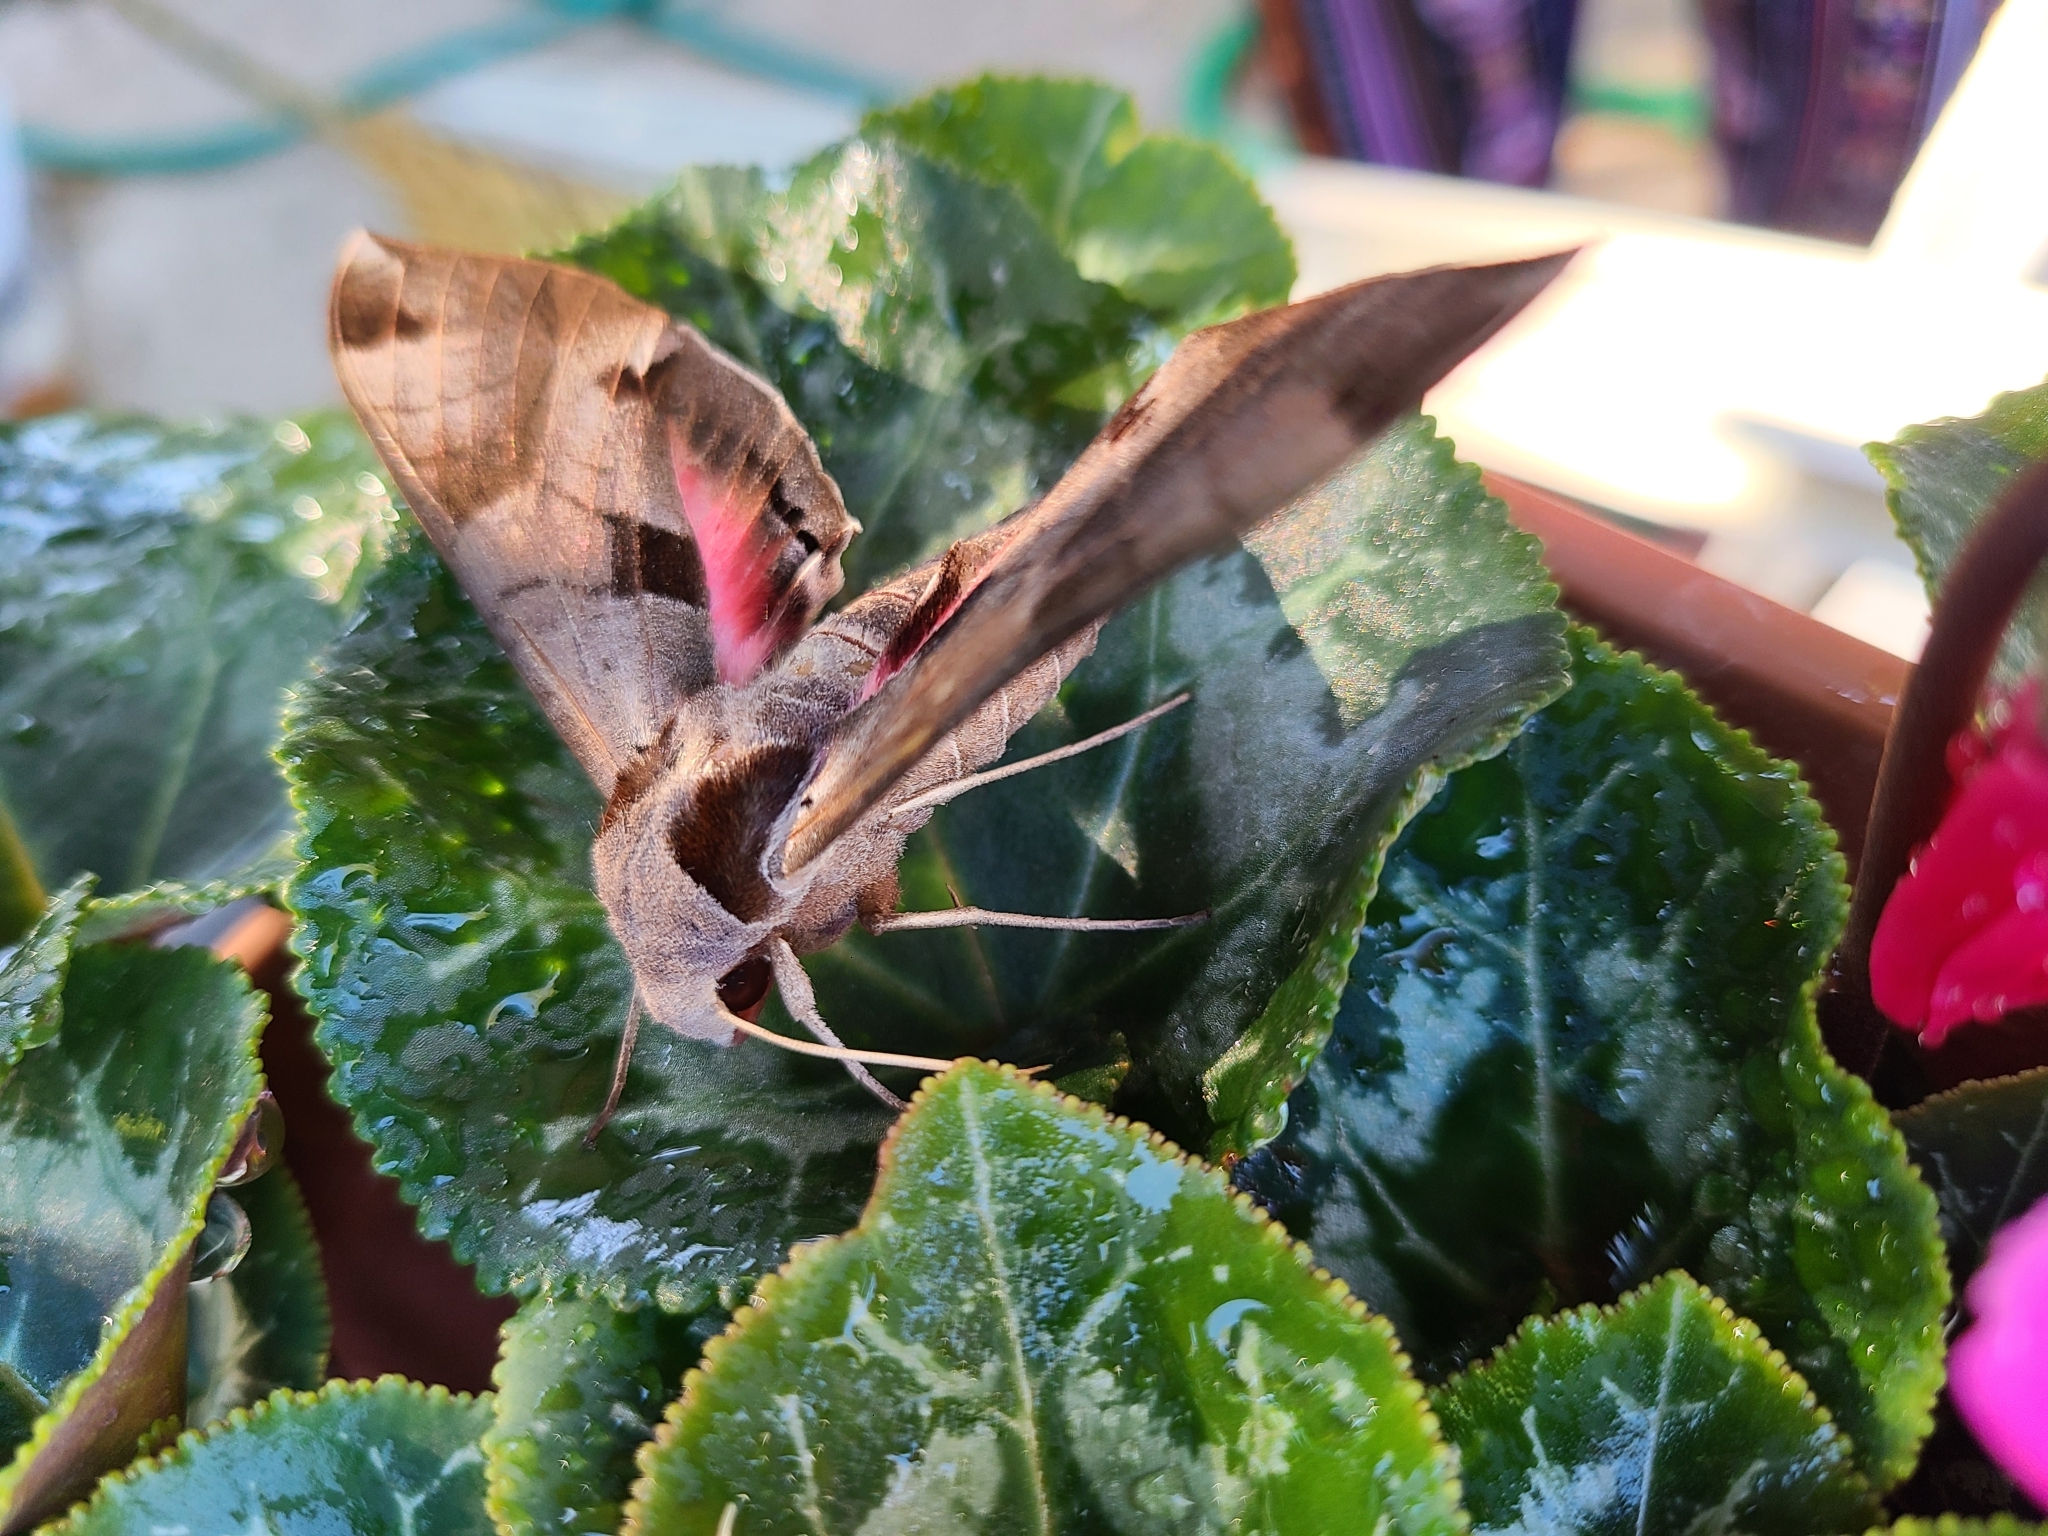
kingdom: Animalia
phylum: Arthropoda
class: Insecta
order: Lepidoptera
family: Sphingidae
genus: Eumorpha
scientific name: Eumorpha achemon
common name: Achemon sphinx
